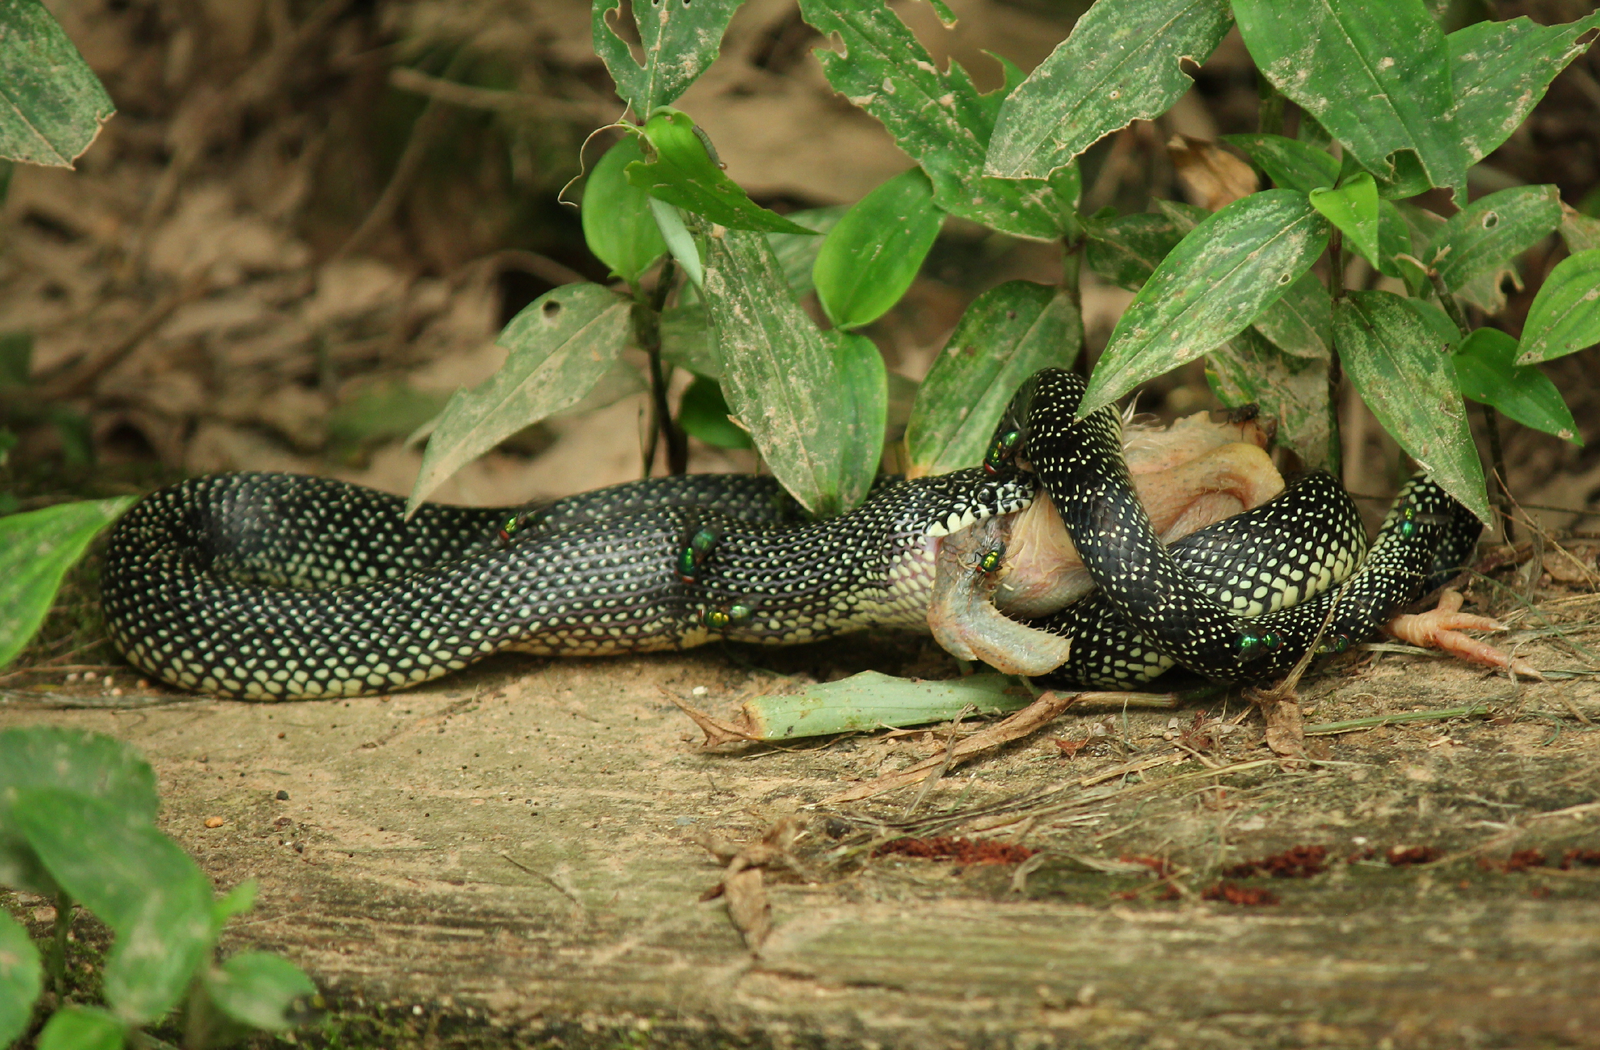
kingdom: Animalia
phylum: Chordata
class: Squamata
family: Colubridae
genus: Lampropeltis
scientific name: Lampropeltis holbrooki
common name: Speckled kingsnake
